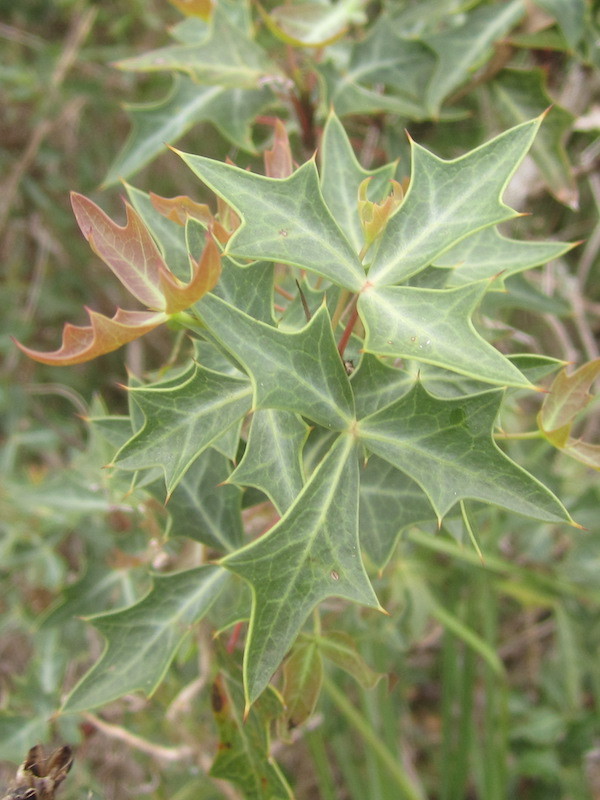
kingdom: Plantae
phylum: Tracheophyta
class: Magnoliopsida
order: Ranunculales
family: Berberidaceae
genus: Alloberberis
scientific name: Alloberberis trifoliolata
